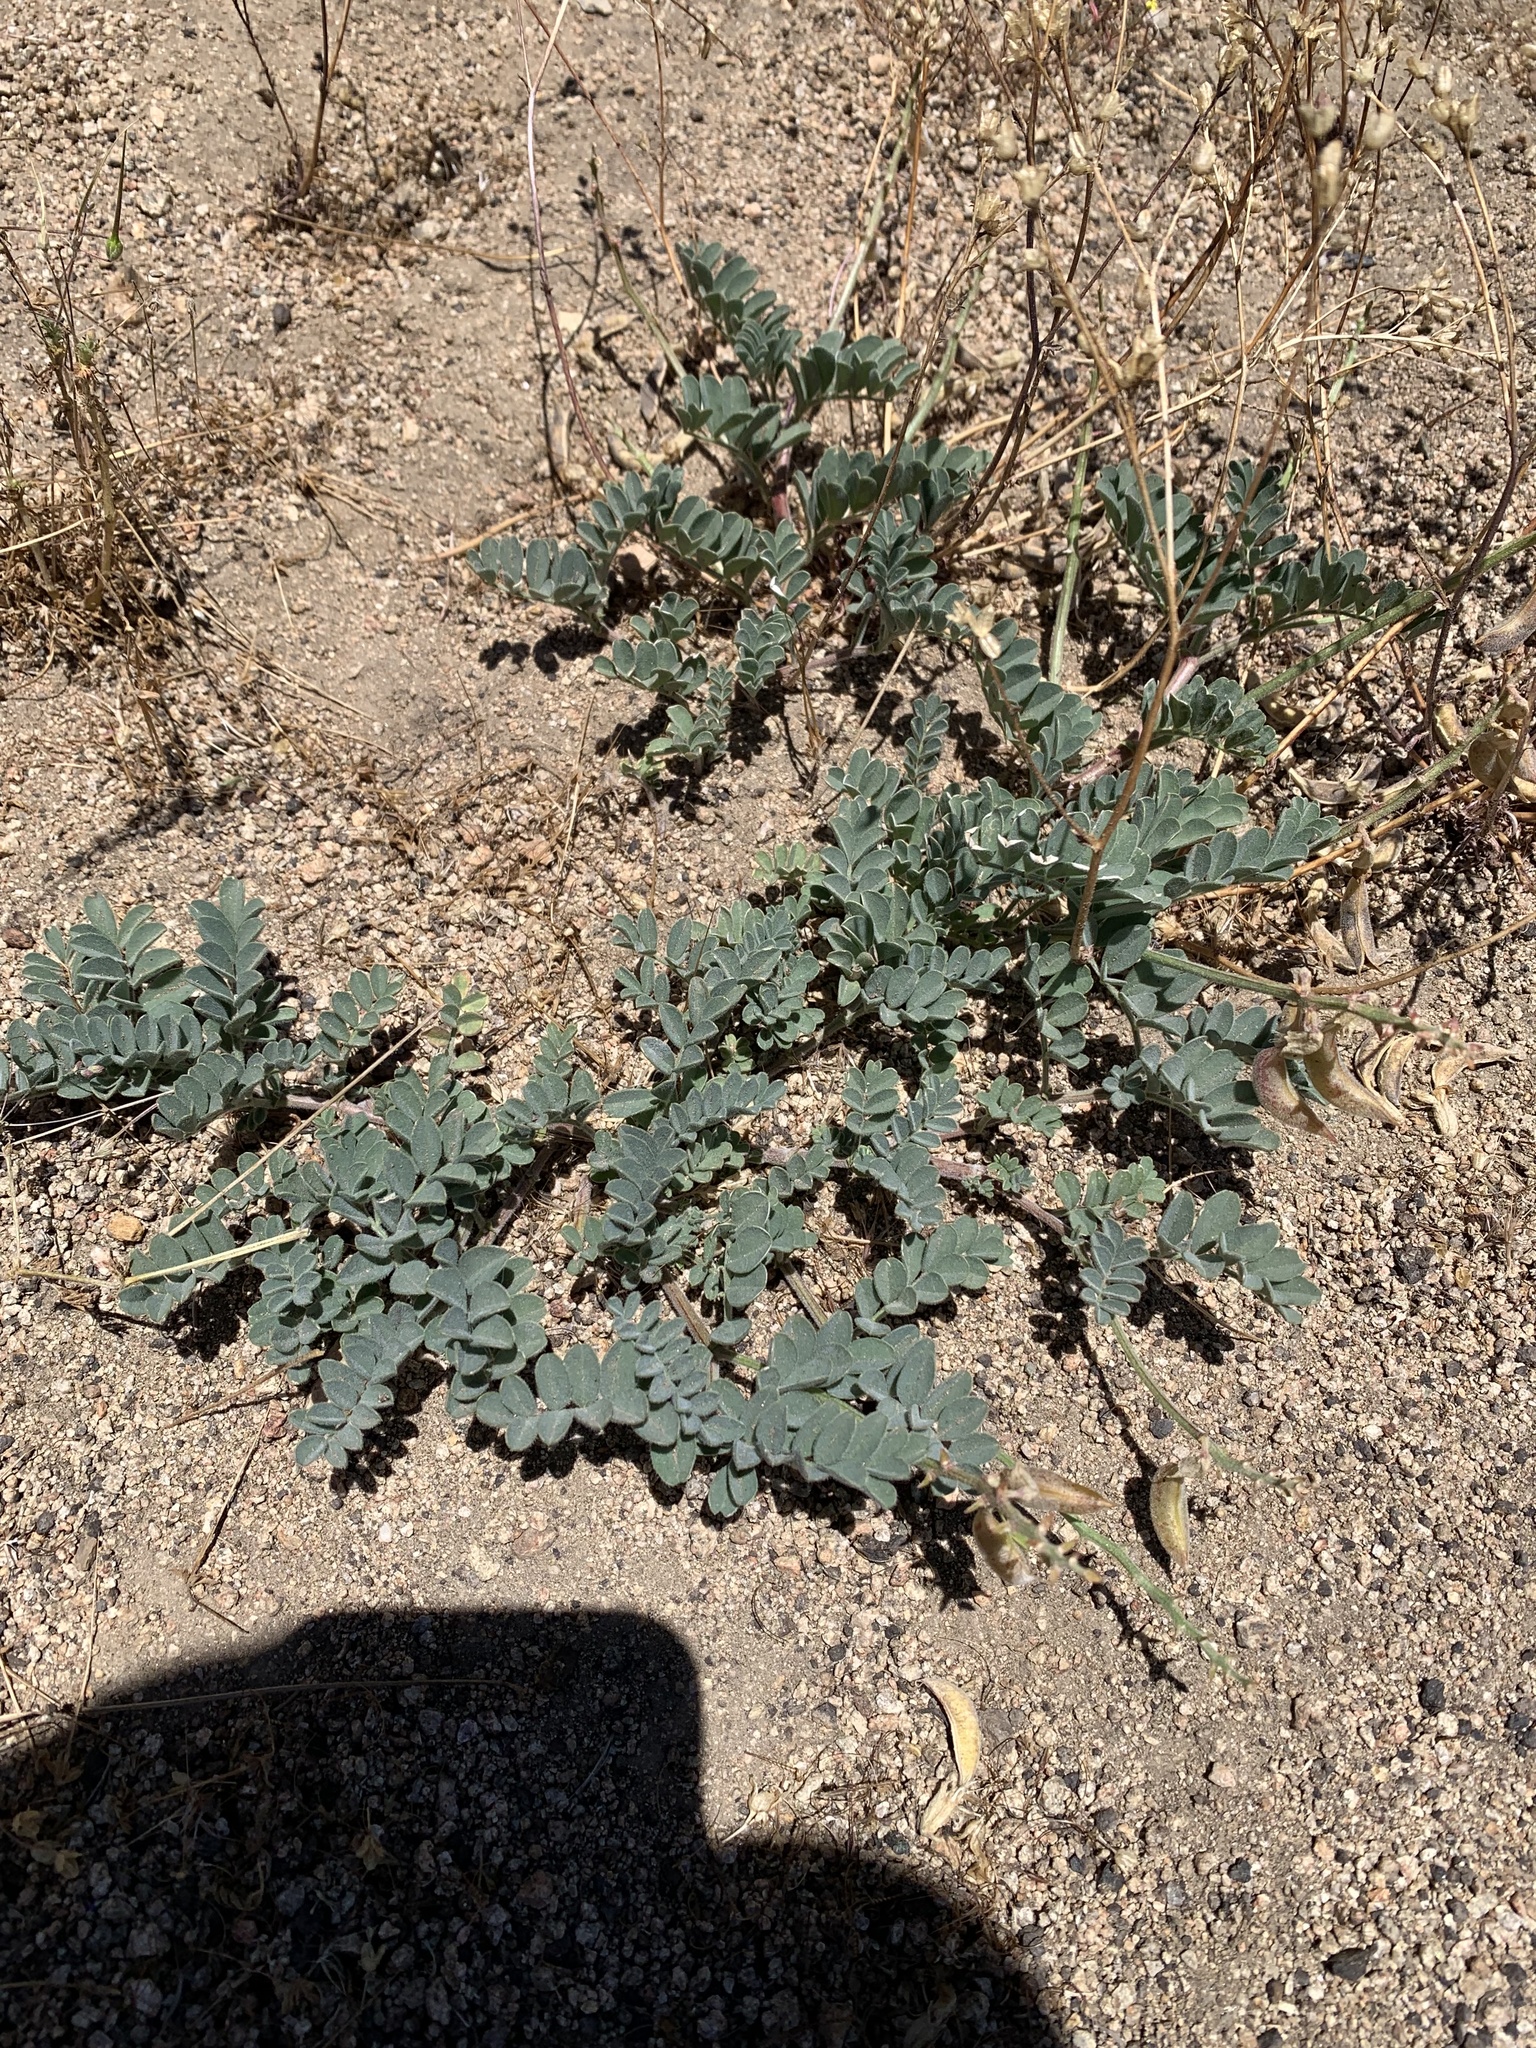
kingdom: Plantae
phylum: Tracheophyta
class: Magnoliopsida
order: Fabales
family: Fabaceae
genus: Astragalus
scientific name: Astragalus gibbsii
